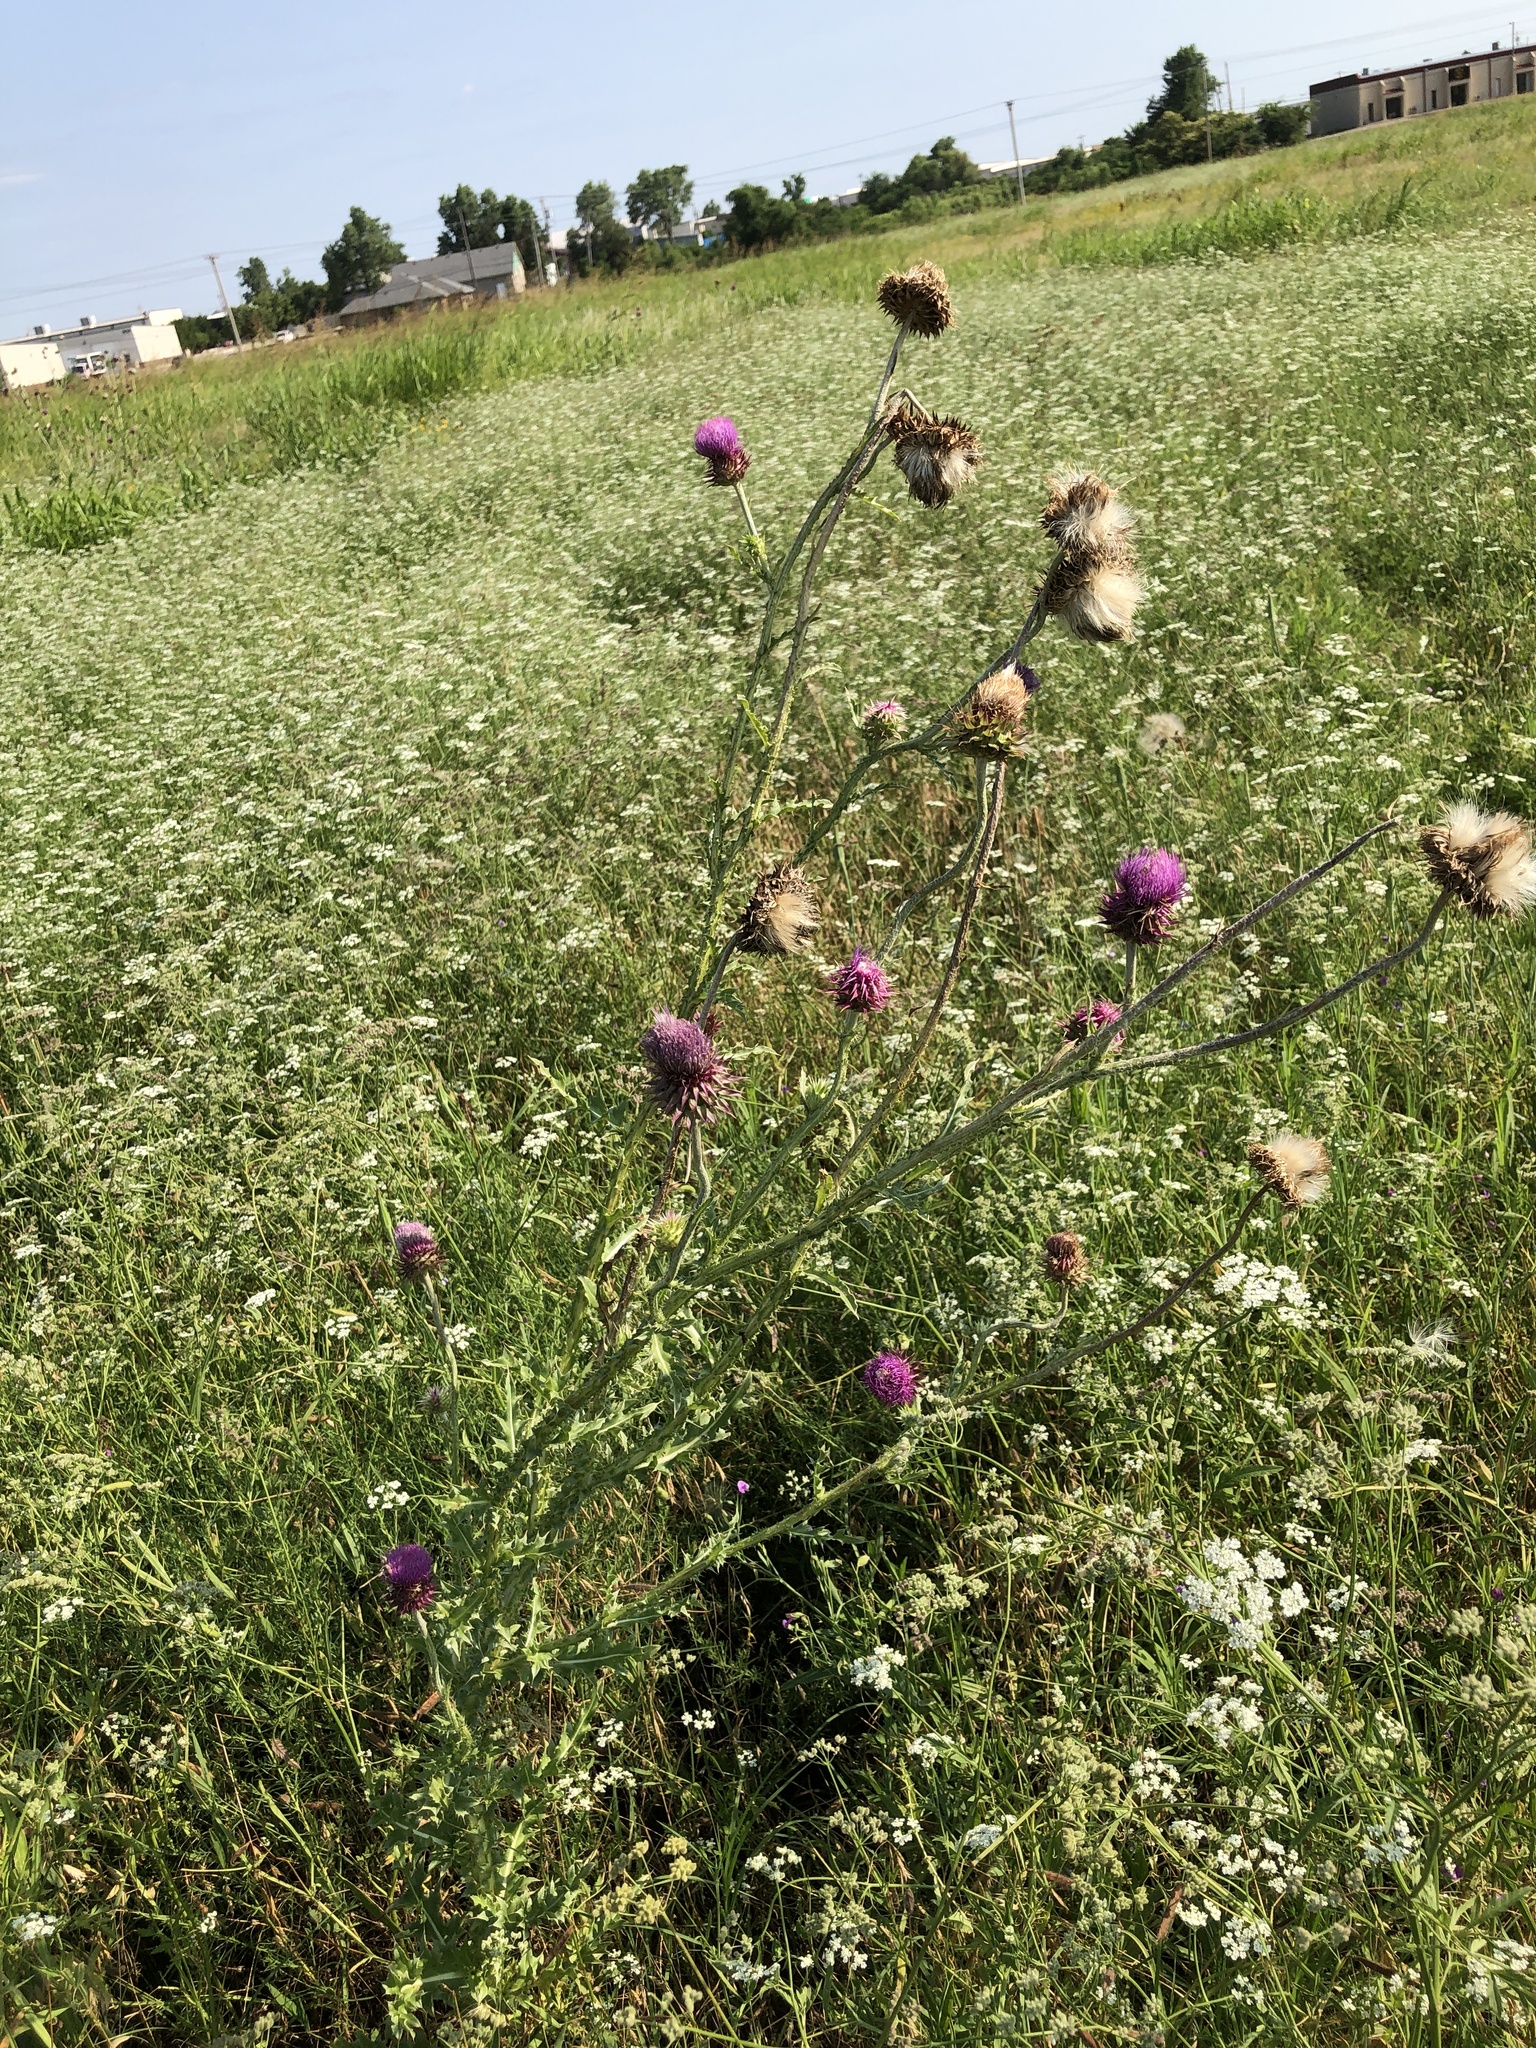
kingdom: Plantae
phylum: Tracheophyta
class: Magnoliopsida
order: Asterales
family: Asteraceae
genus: Carduus
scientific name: Carduus nutans
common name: Musk thistle
